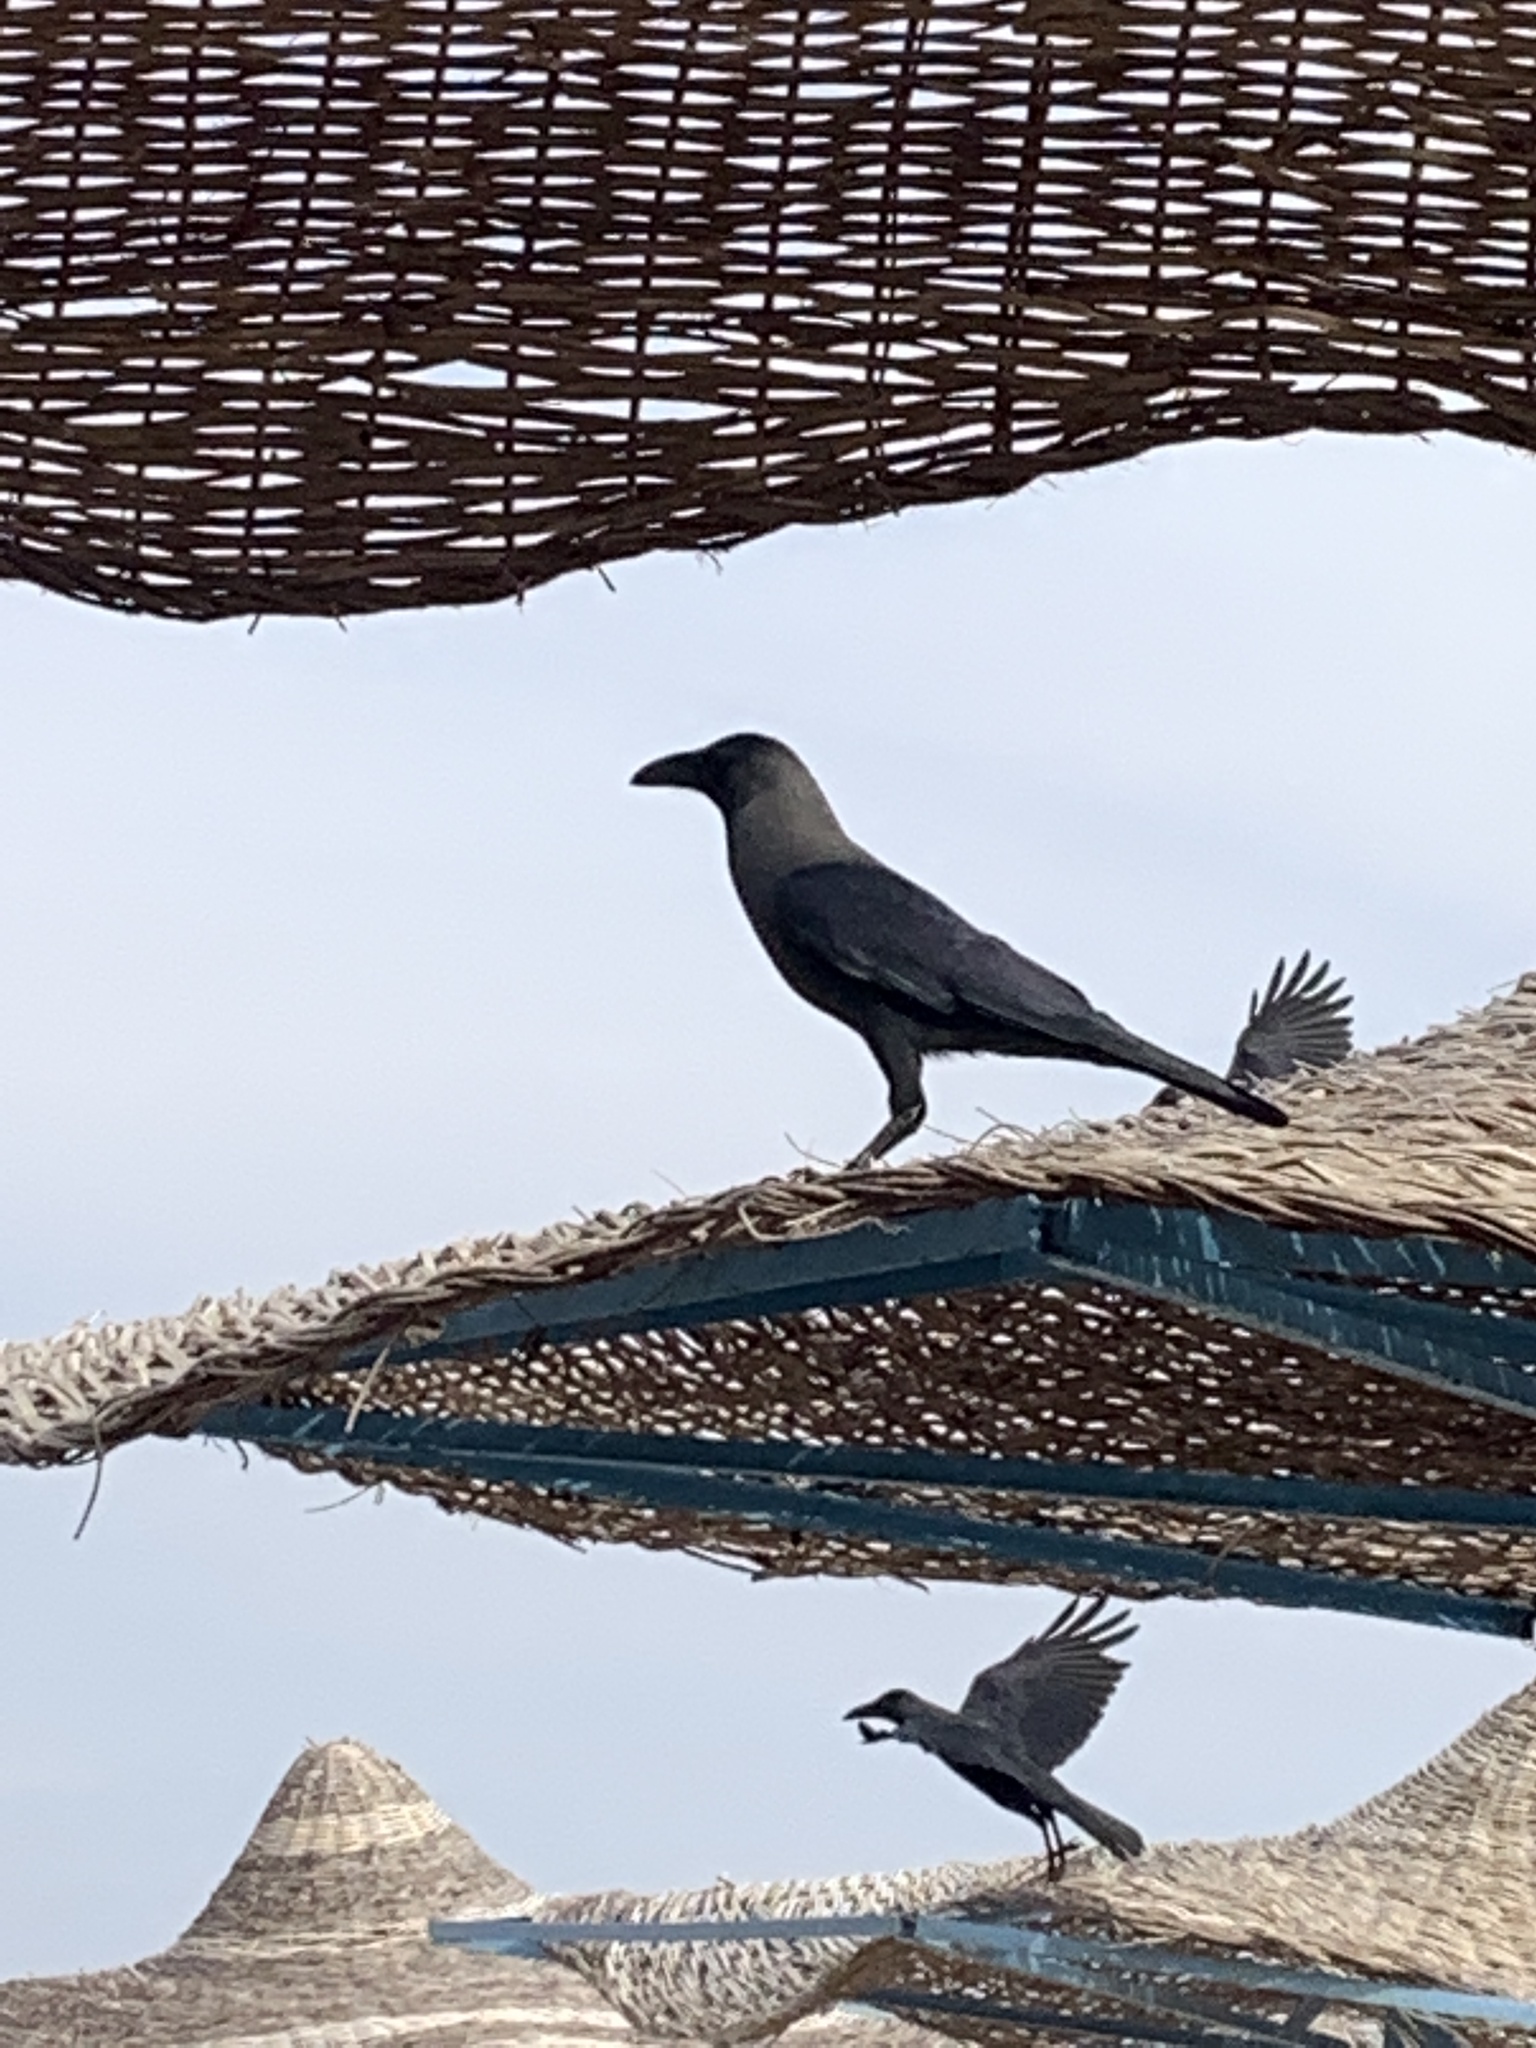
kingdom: Animalia
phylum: Chordata
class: Aves
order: Passeriformes
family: Corvidae
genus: Corvus
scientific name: Corvus splendens
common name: House crow
